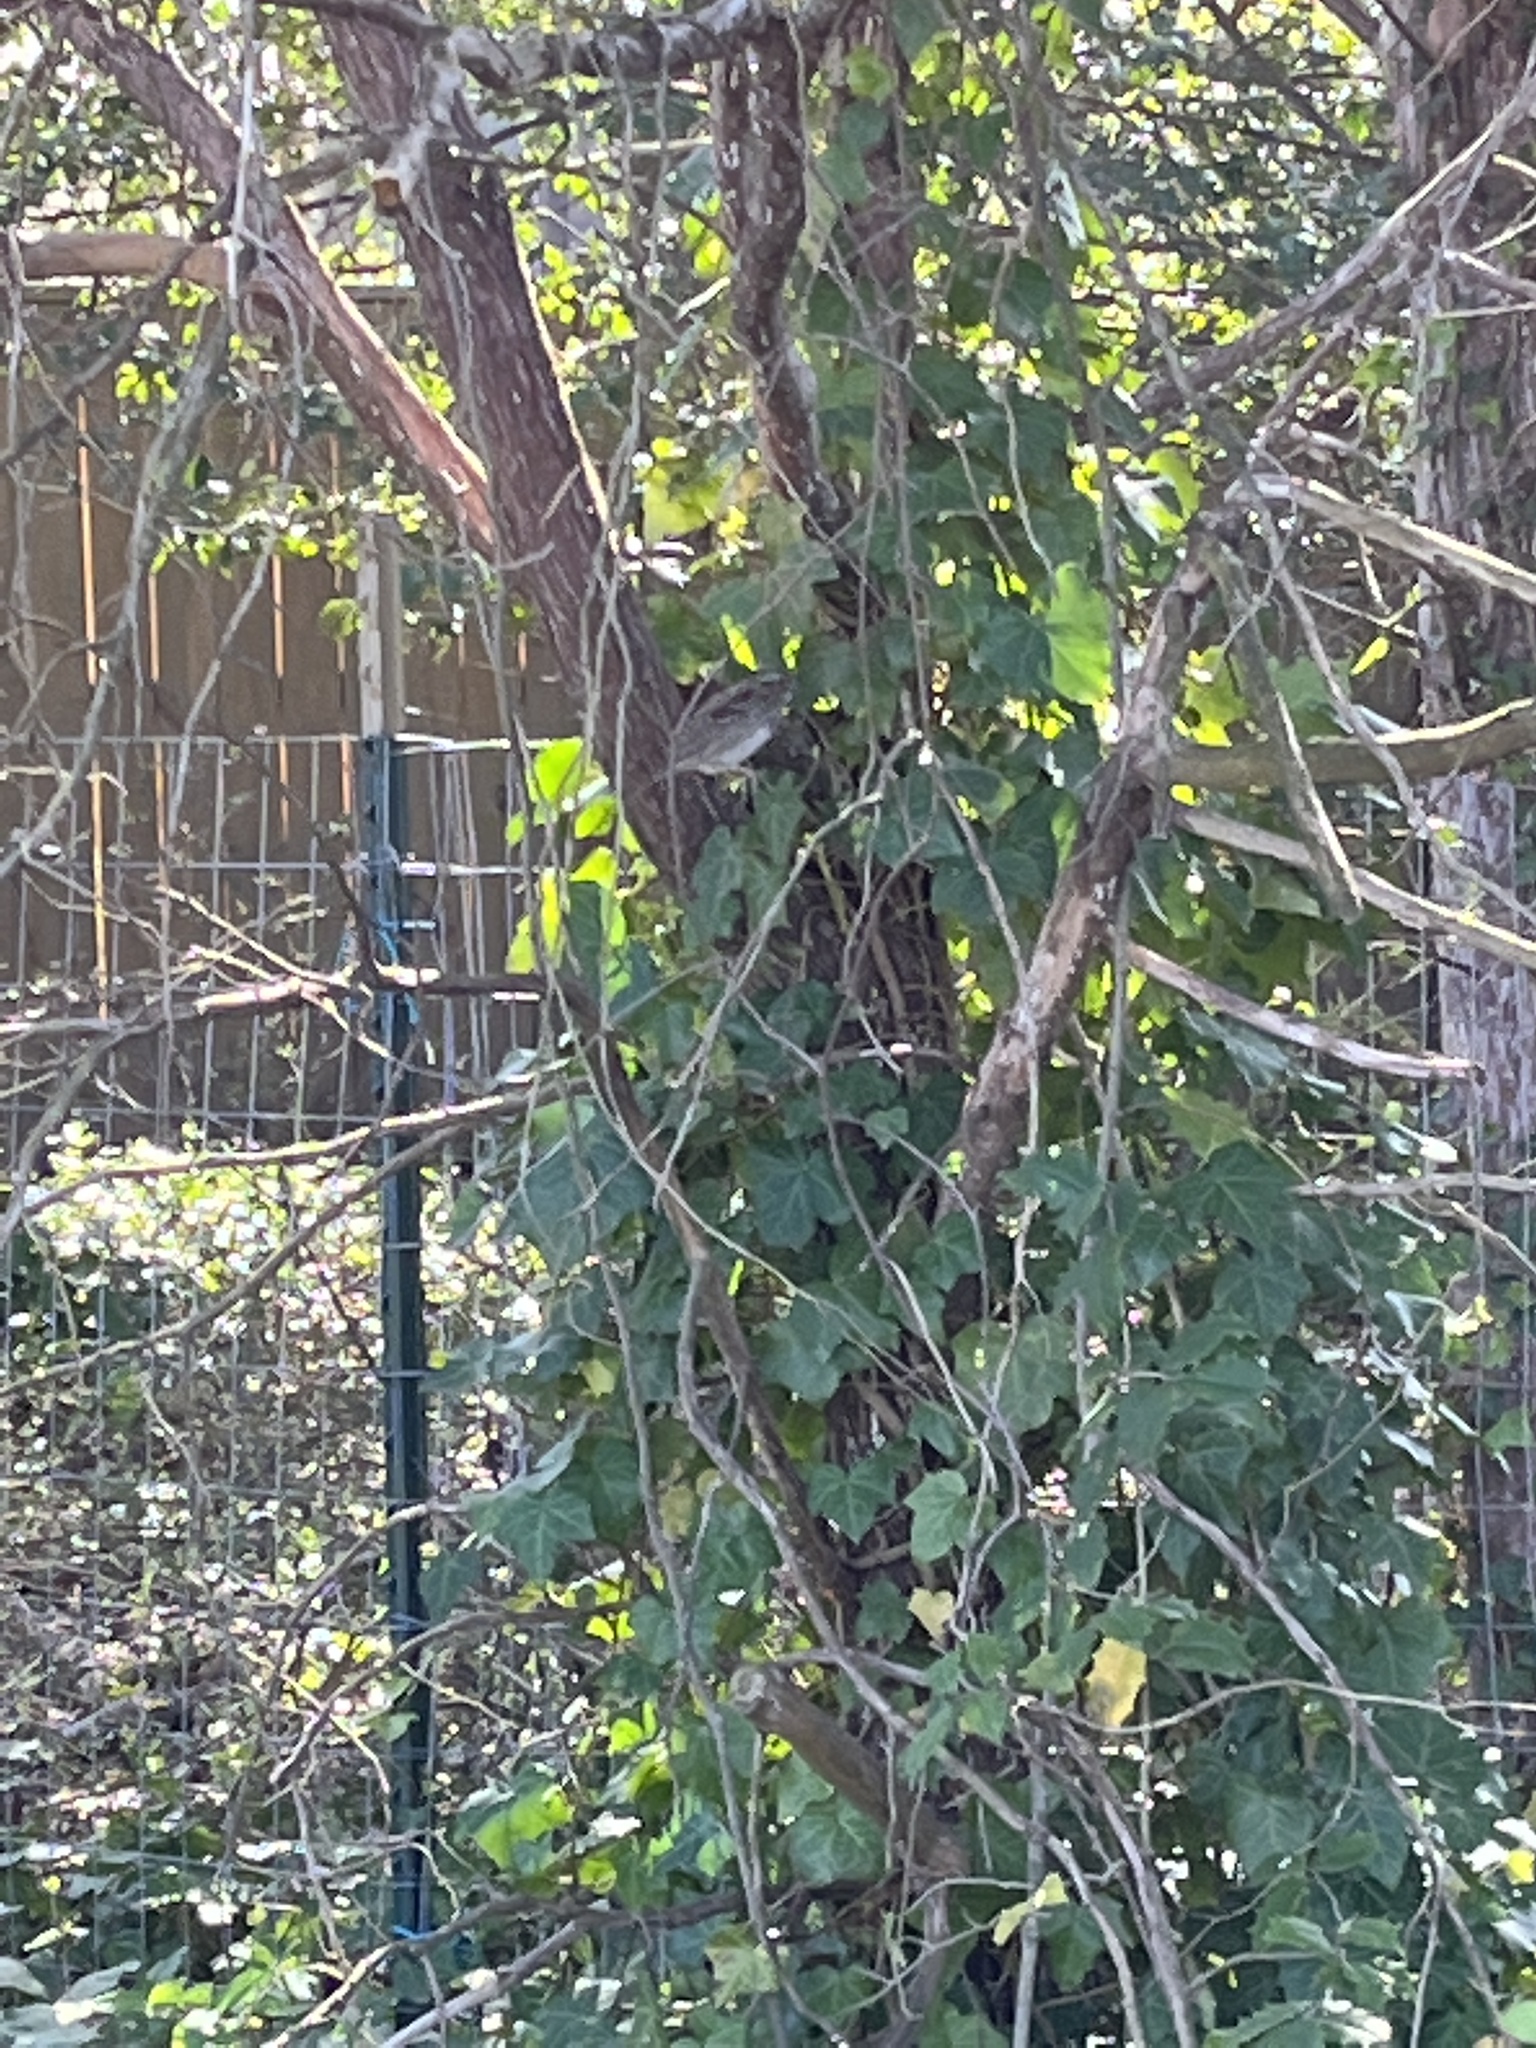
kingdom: Animalia
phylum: Chordata
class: Aves
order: Passeriformes
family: Passerellidae
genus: Zonotrichia
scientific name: Zonotrichia albicollis
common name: White-throated sparrow
